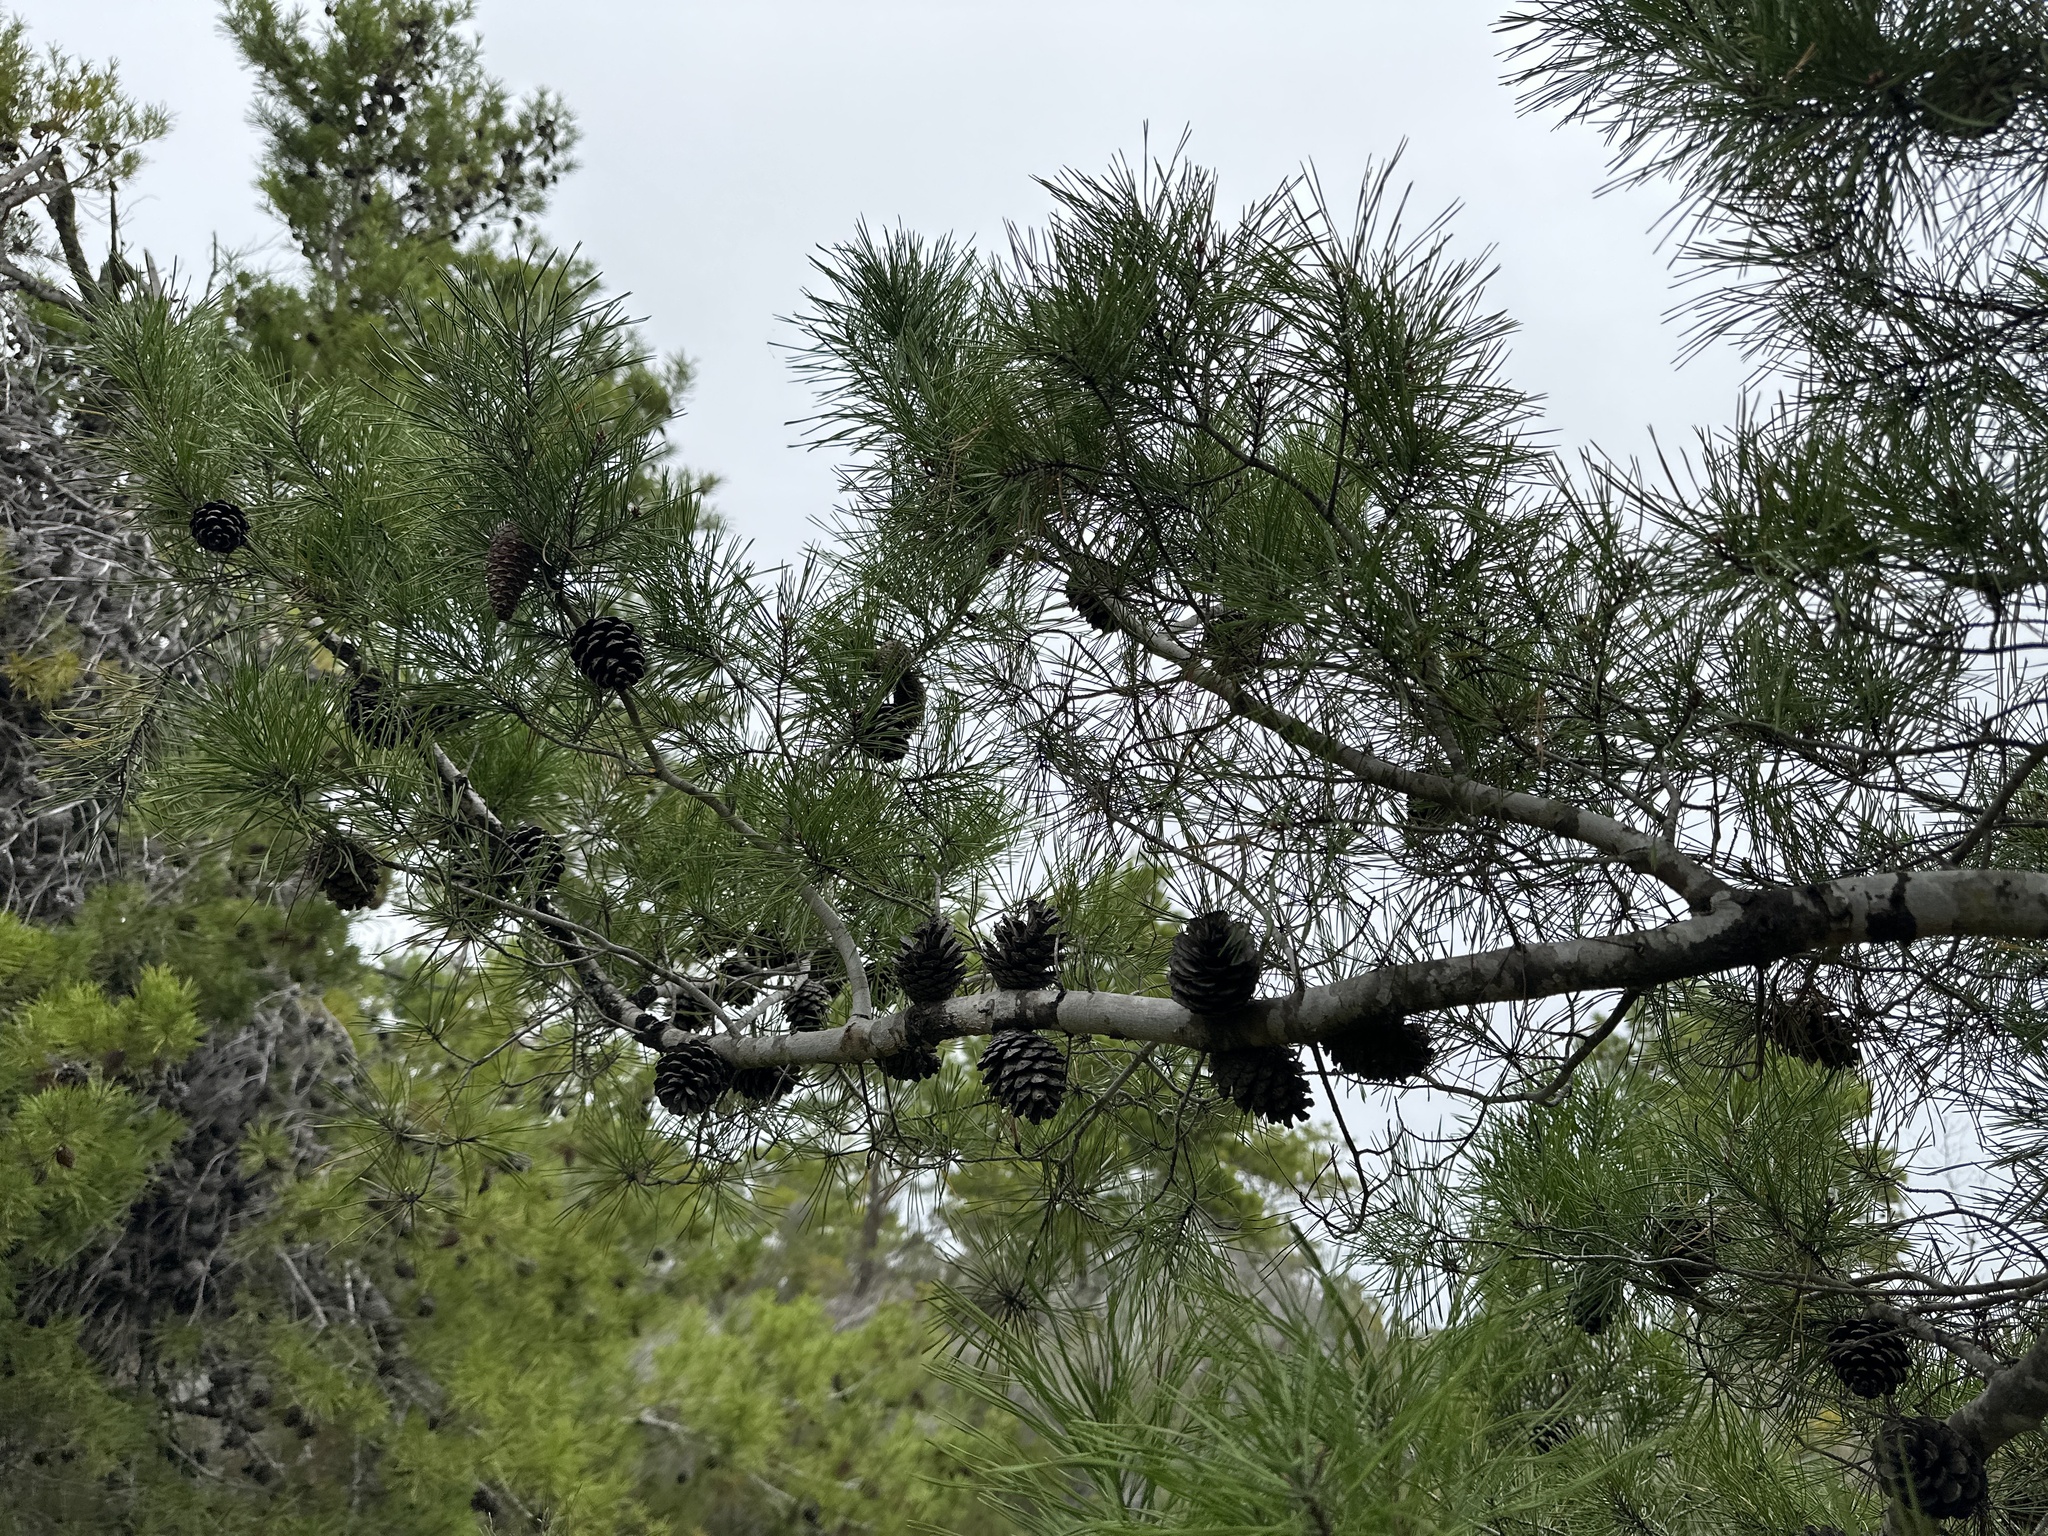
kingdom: Plantae
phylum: Tracheophyta
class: Pinopsida
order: Pinales
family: Pinaceae
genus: Pinus
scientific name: Pinus clausa
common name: Sand pine
